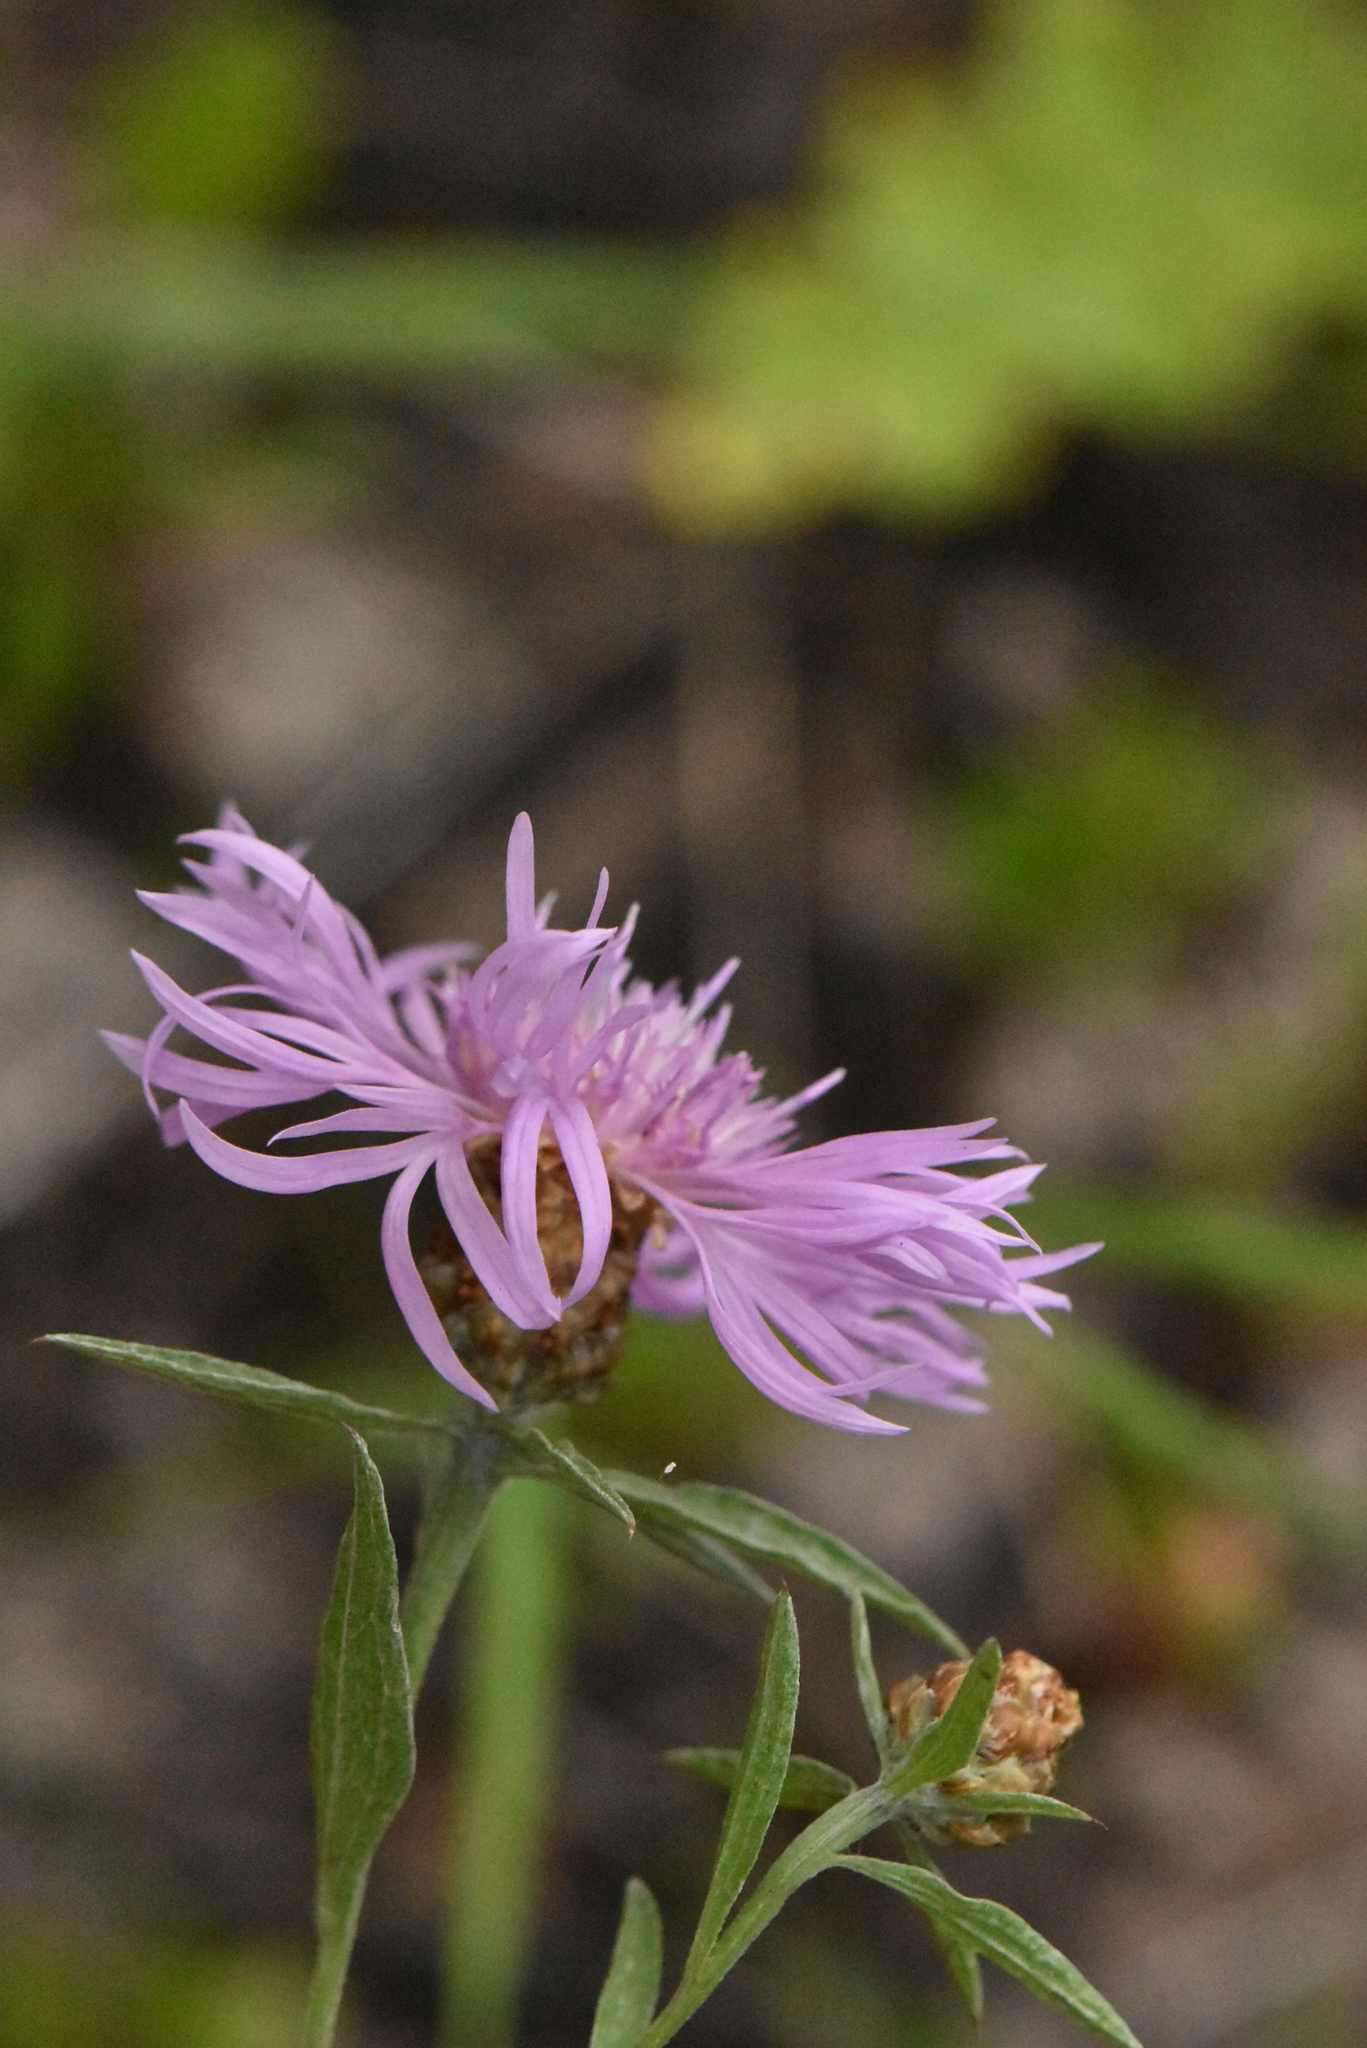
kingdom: Plantae
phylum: Tracheophyta
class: Magnoliopsida
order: Asterales
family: Asteraceae
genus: Centaurea
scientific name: Centaurea jacea
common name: Brown knapweed
